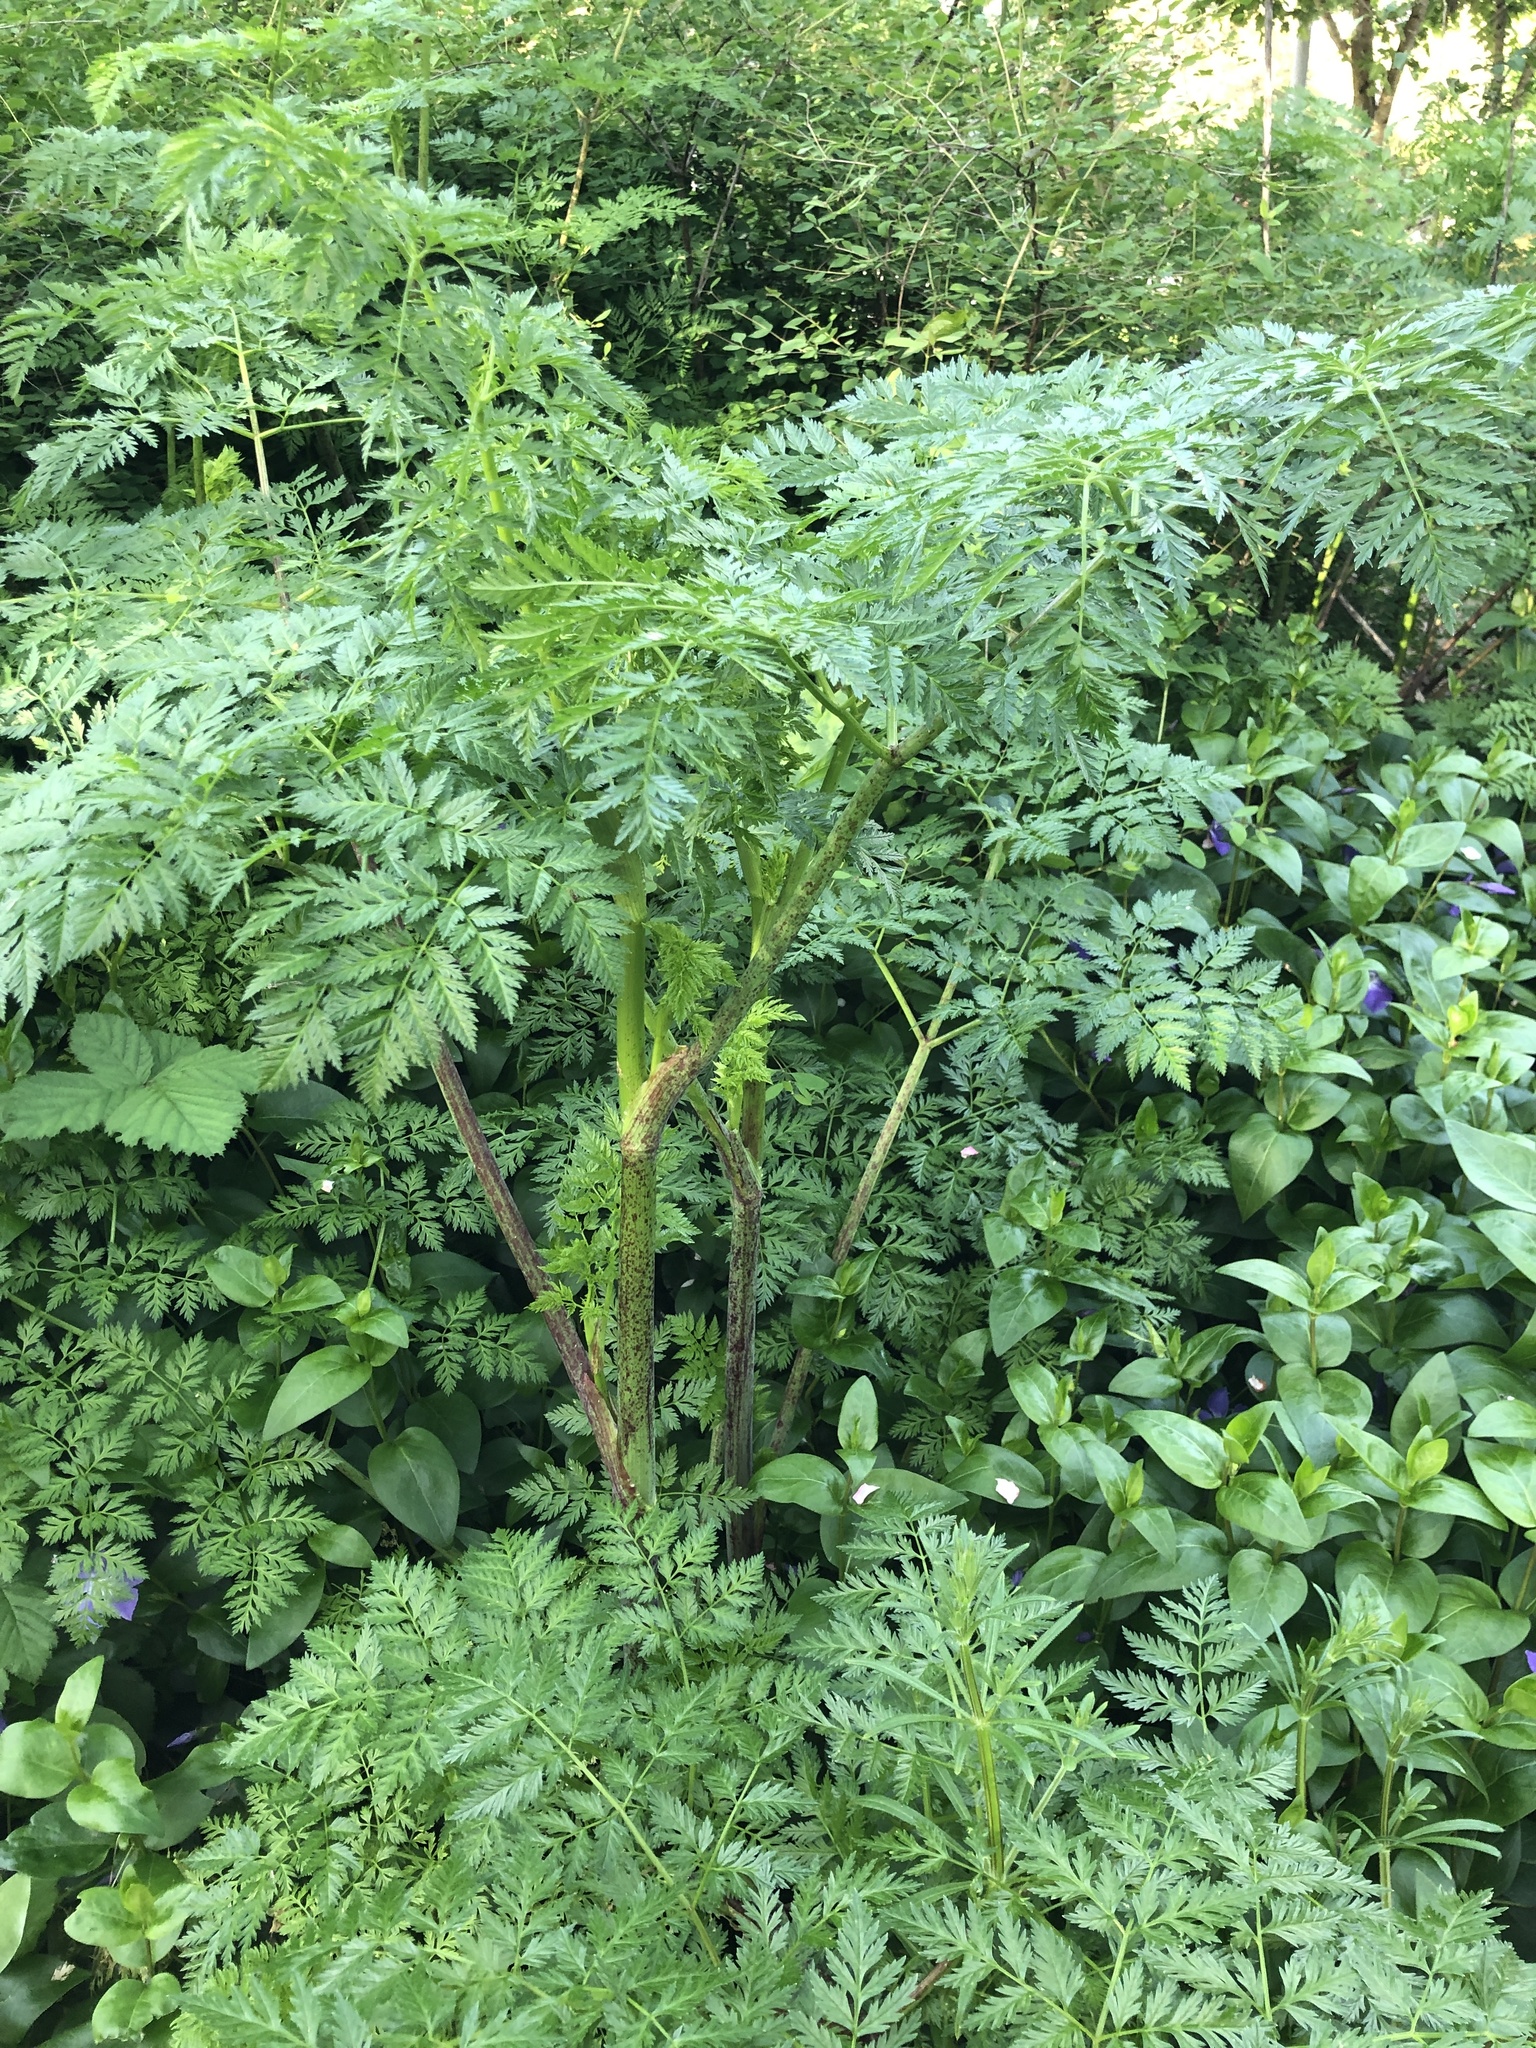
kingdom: Plantae
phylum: Tracheophyta
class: Magnoliopsida
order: Apiales
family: Apiaceae
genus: Conium
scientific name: Conium maculatum
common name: Hemlock
